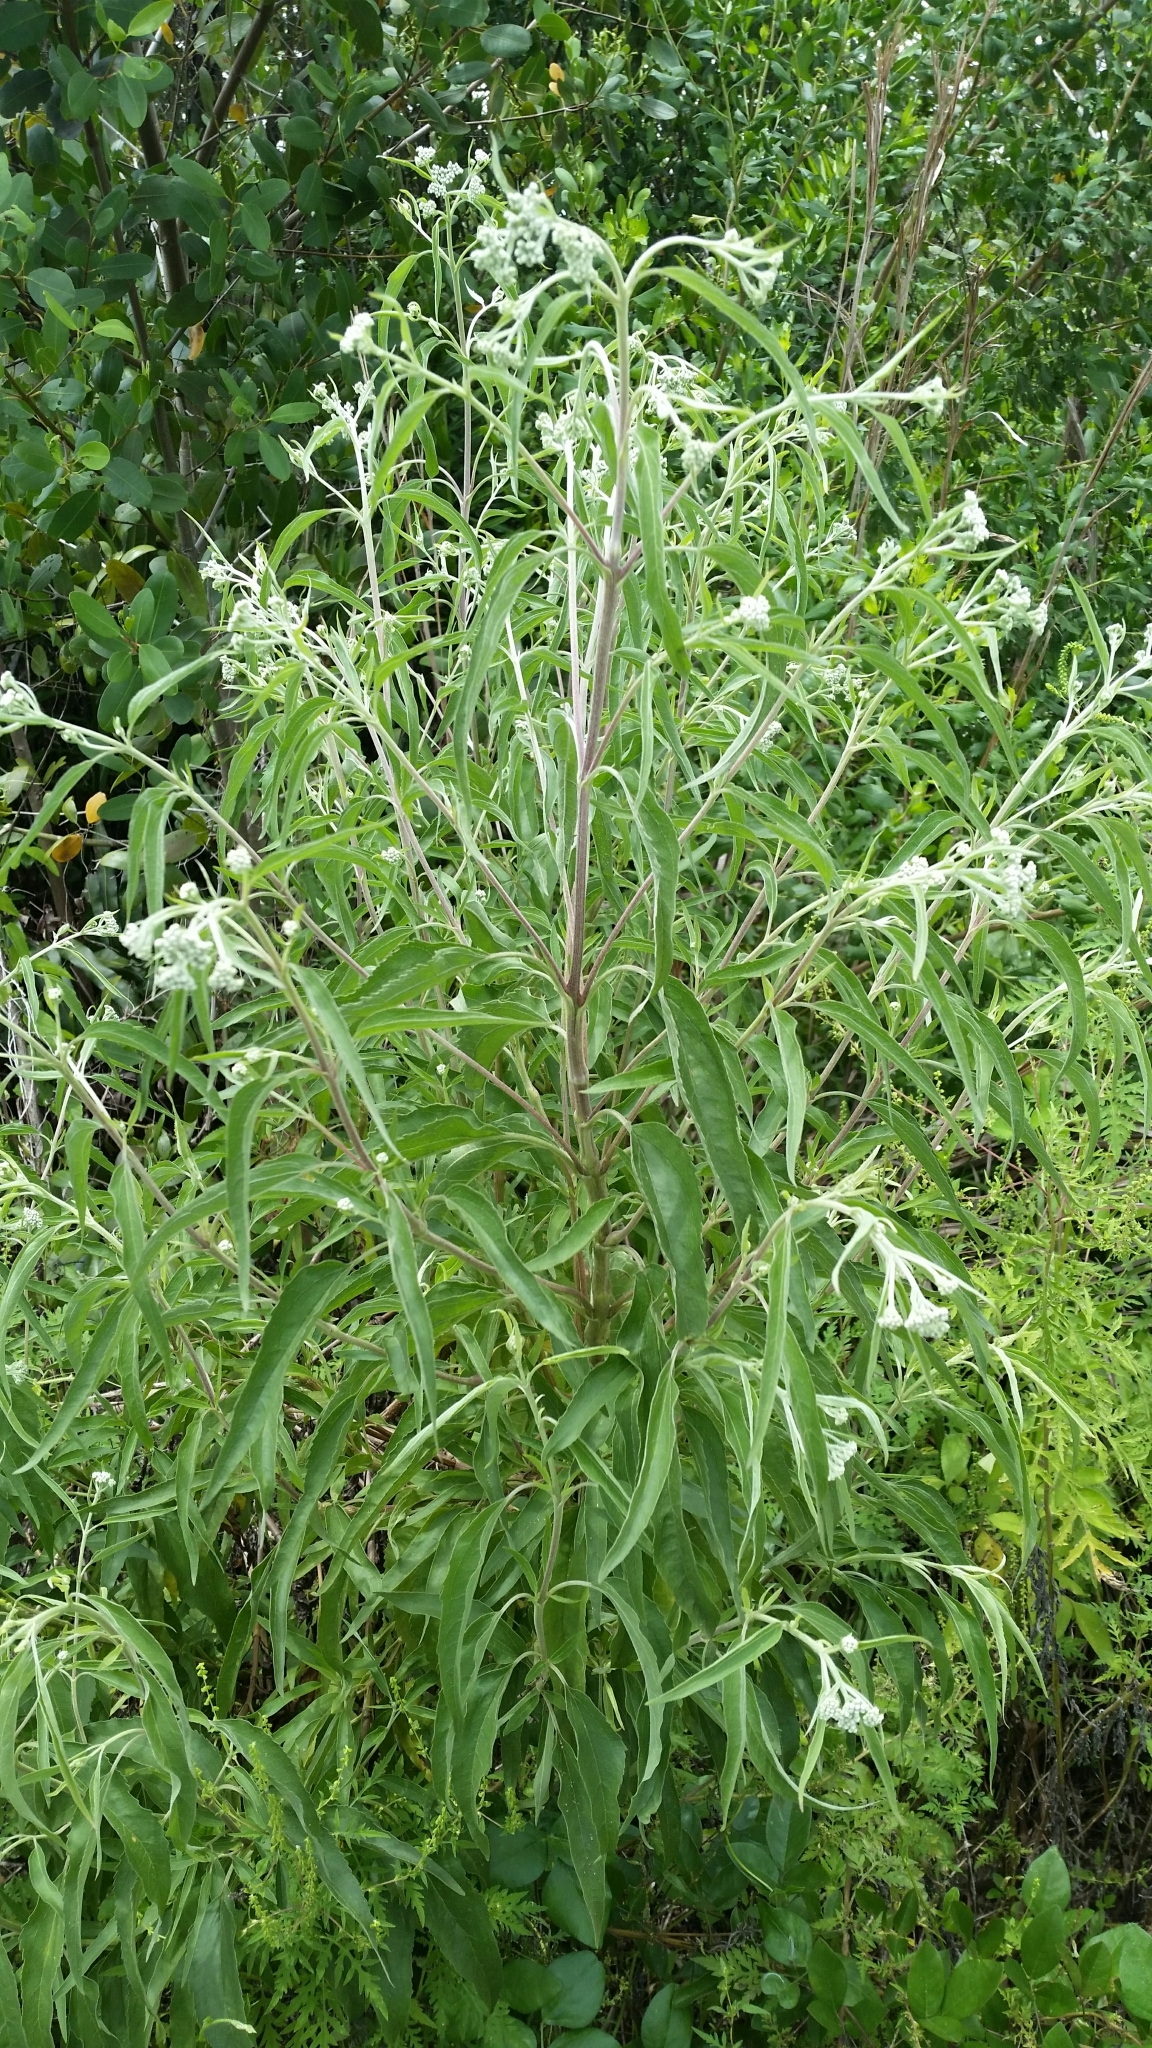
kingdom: Plantae
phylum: Tracheophyta
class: Magnoliopsida
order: Asterales
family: Asteraceae
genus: Eupatorium
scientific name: Eupatorium serotinum
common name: Late boneset
